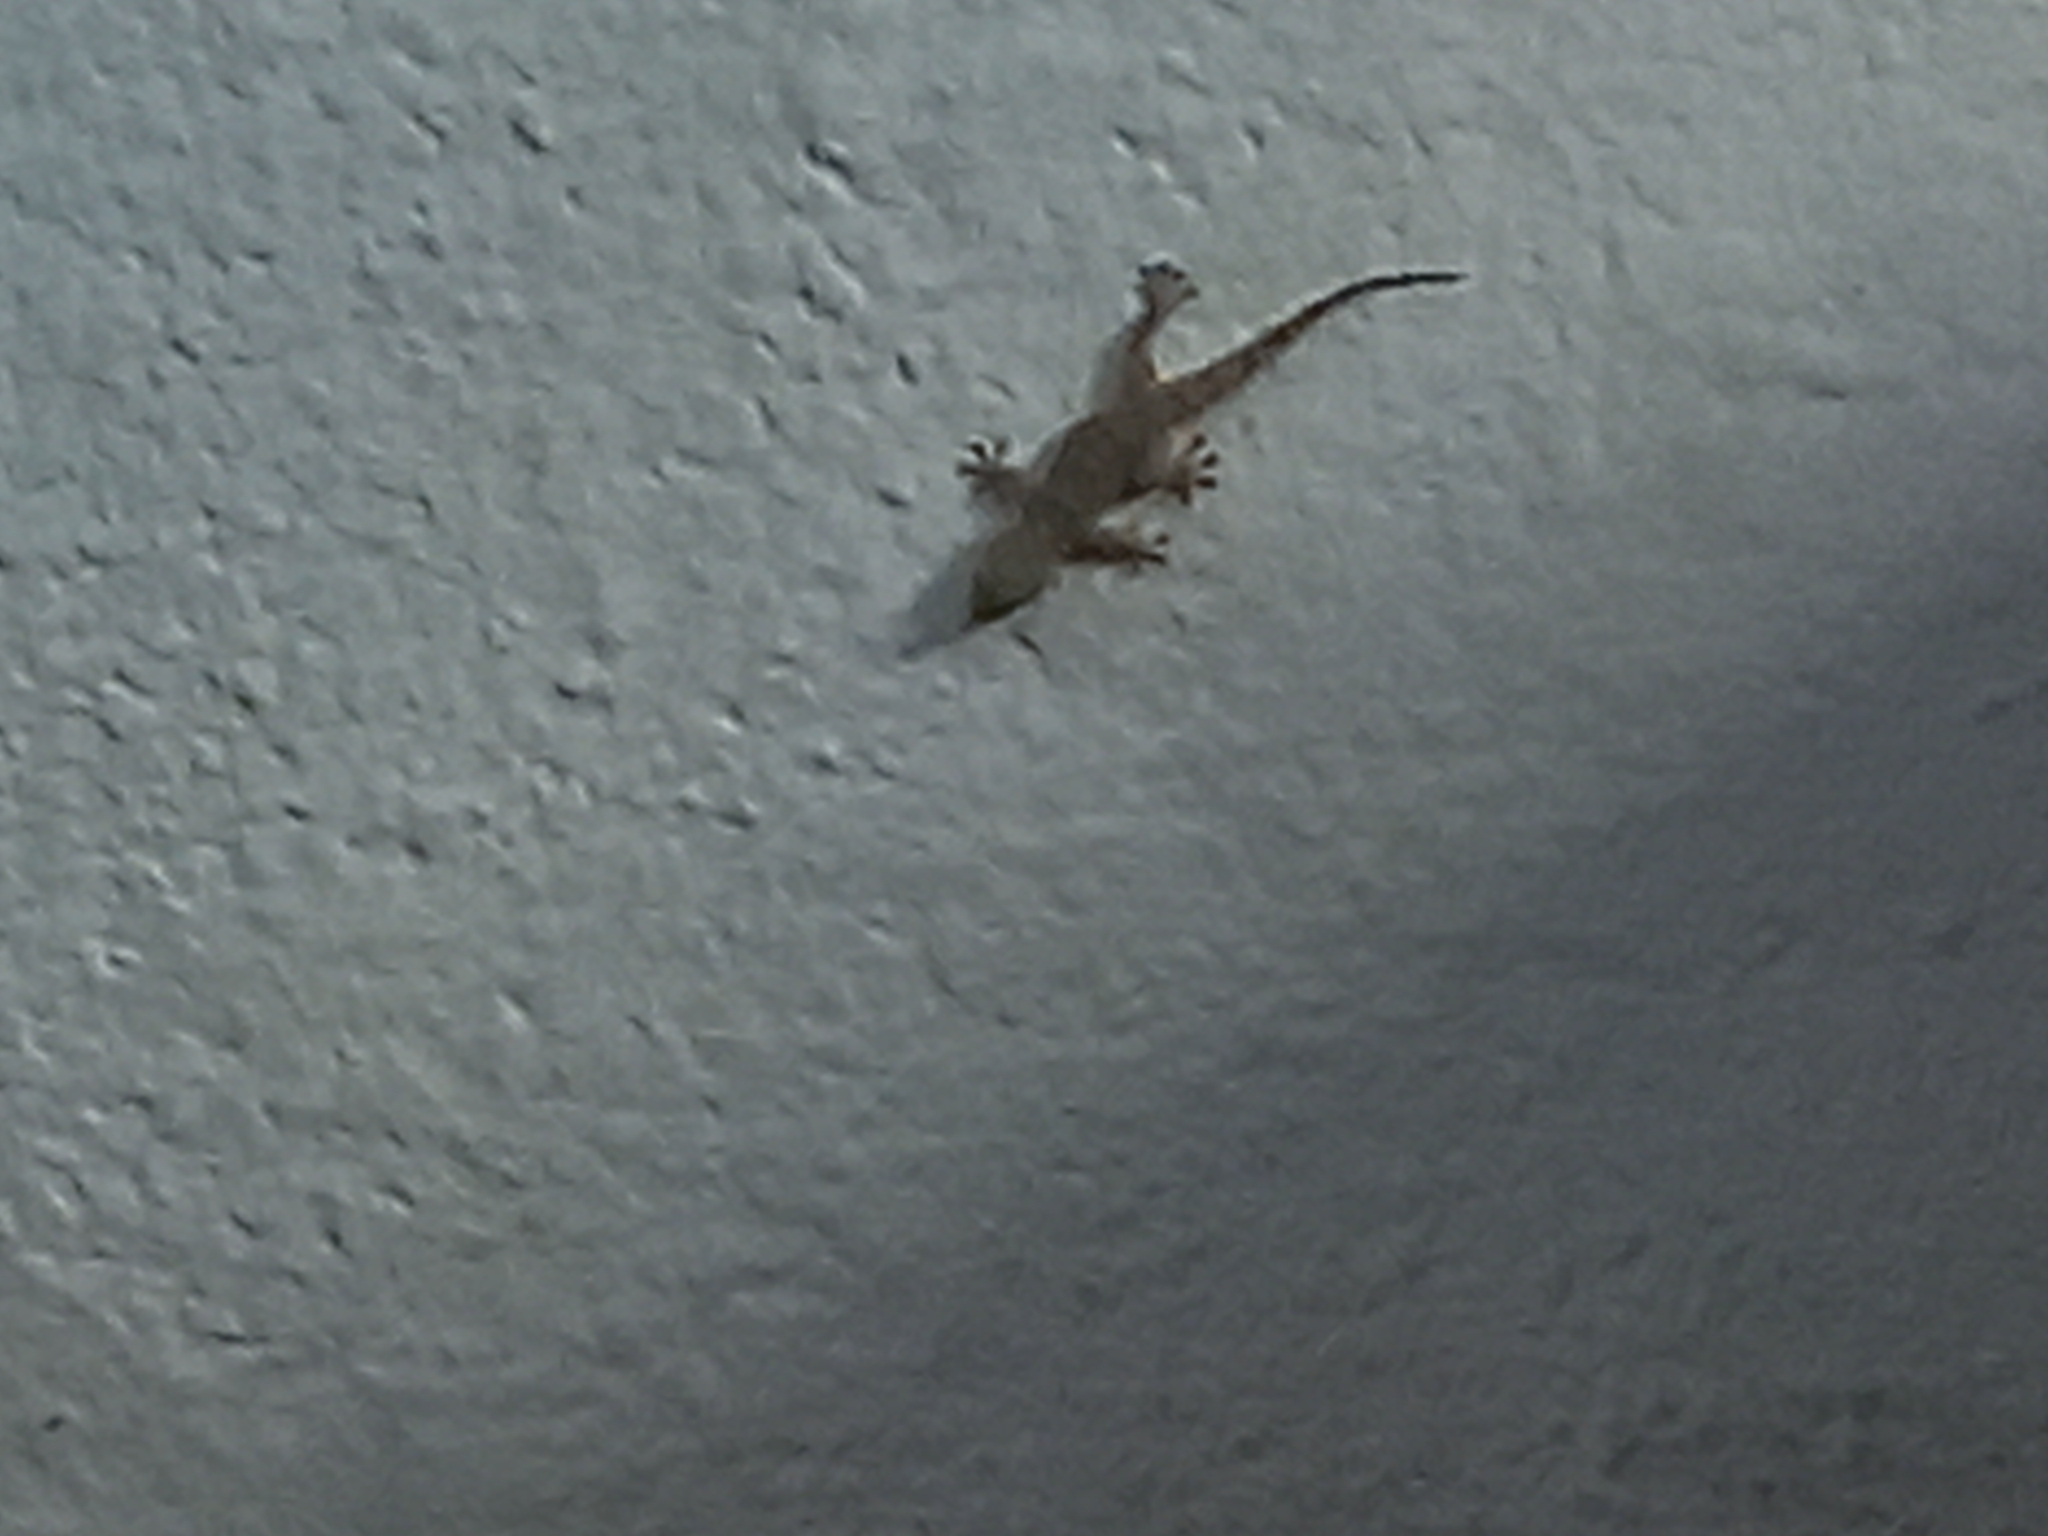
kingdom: Animalia
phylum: Chordata
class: Squamata
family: Phyllodactylidae
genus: Tarentola
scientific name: Tarentola mauritanica
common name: Moorish gecko
